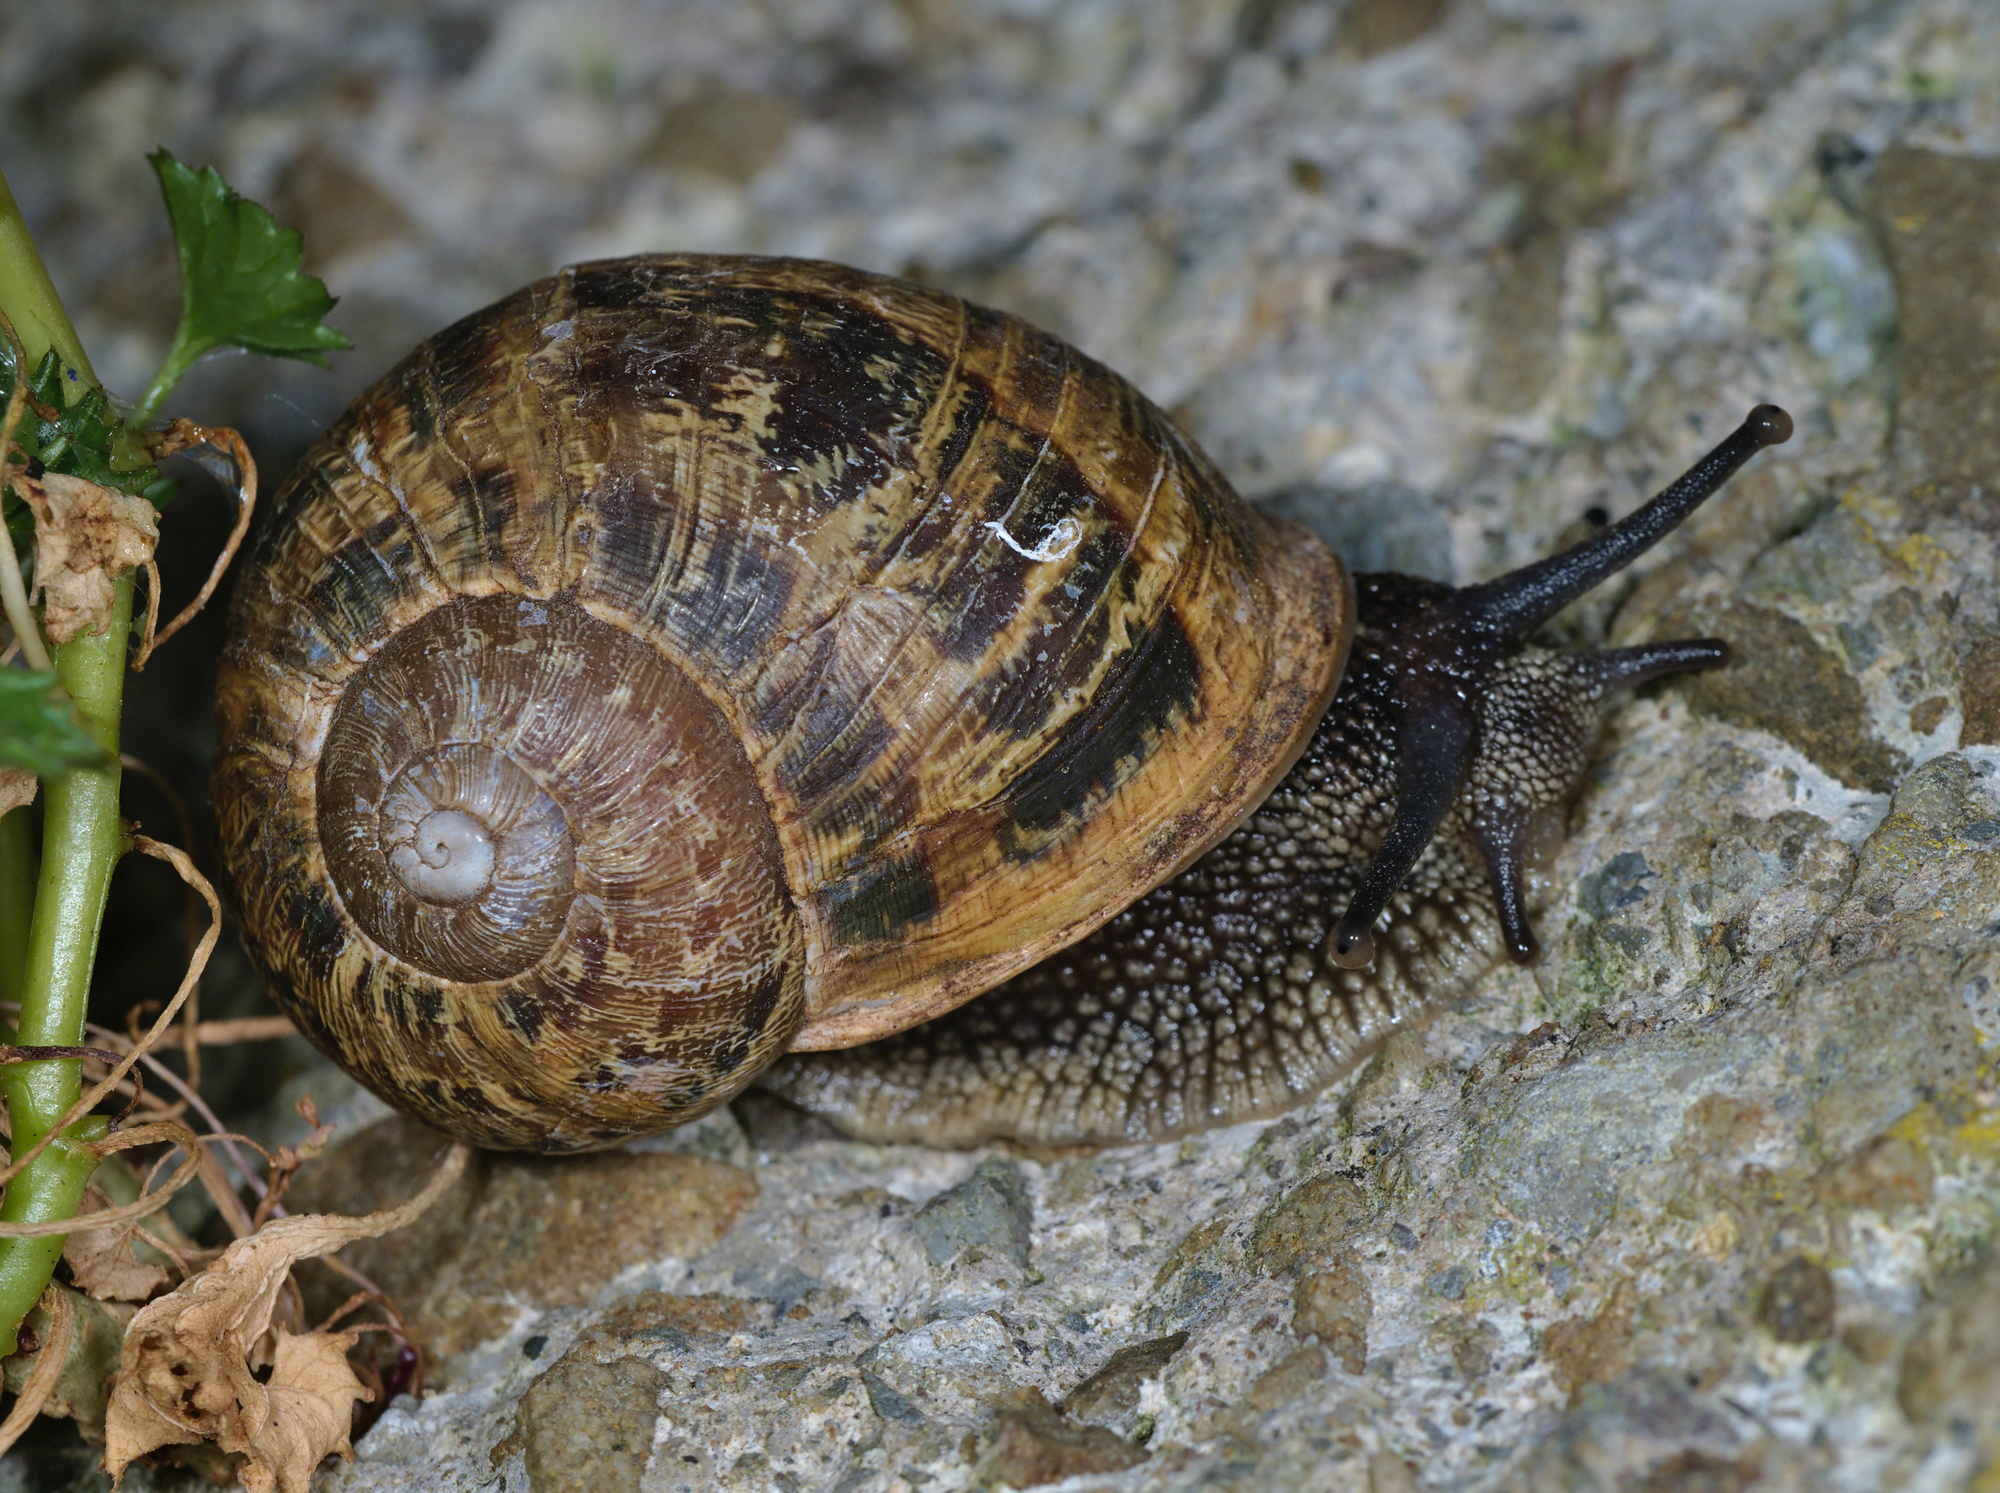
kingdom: Animalia
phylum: Mollusca
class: Gastropoda
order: Stylommatophora
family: Helicidae
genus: Cornu
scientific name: Cornu aspersum
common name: Brown garden snail
